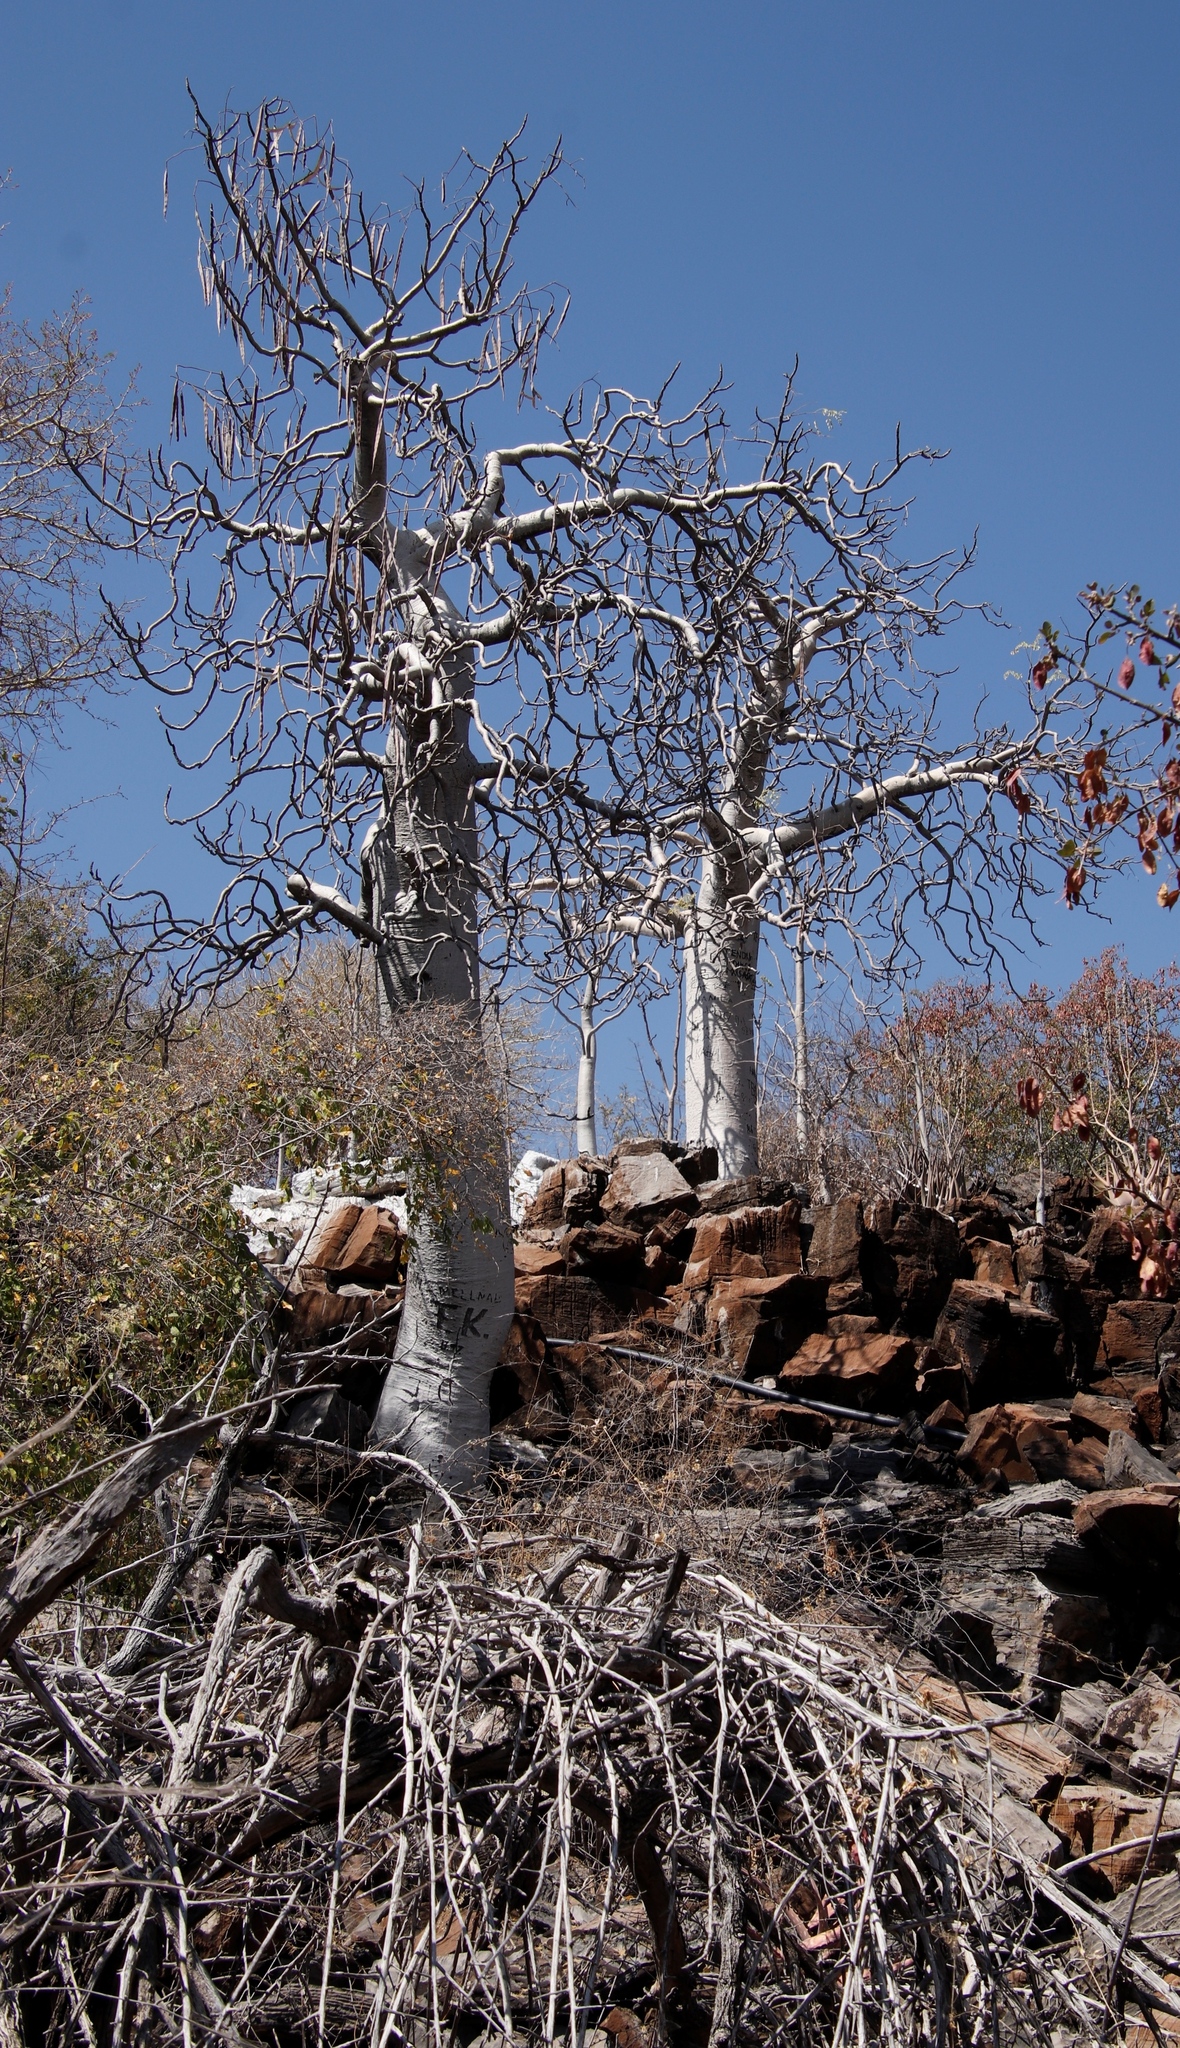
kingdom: Plantae
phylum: Tracheophyta
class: Magnoliopsida
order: Brassicales
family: Moringaceae
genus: Moringa
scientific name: Moringa ovalifolia
